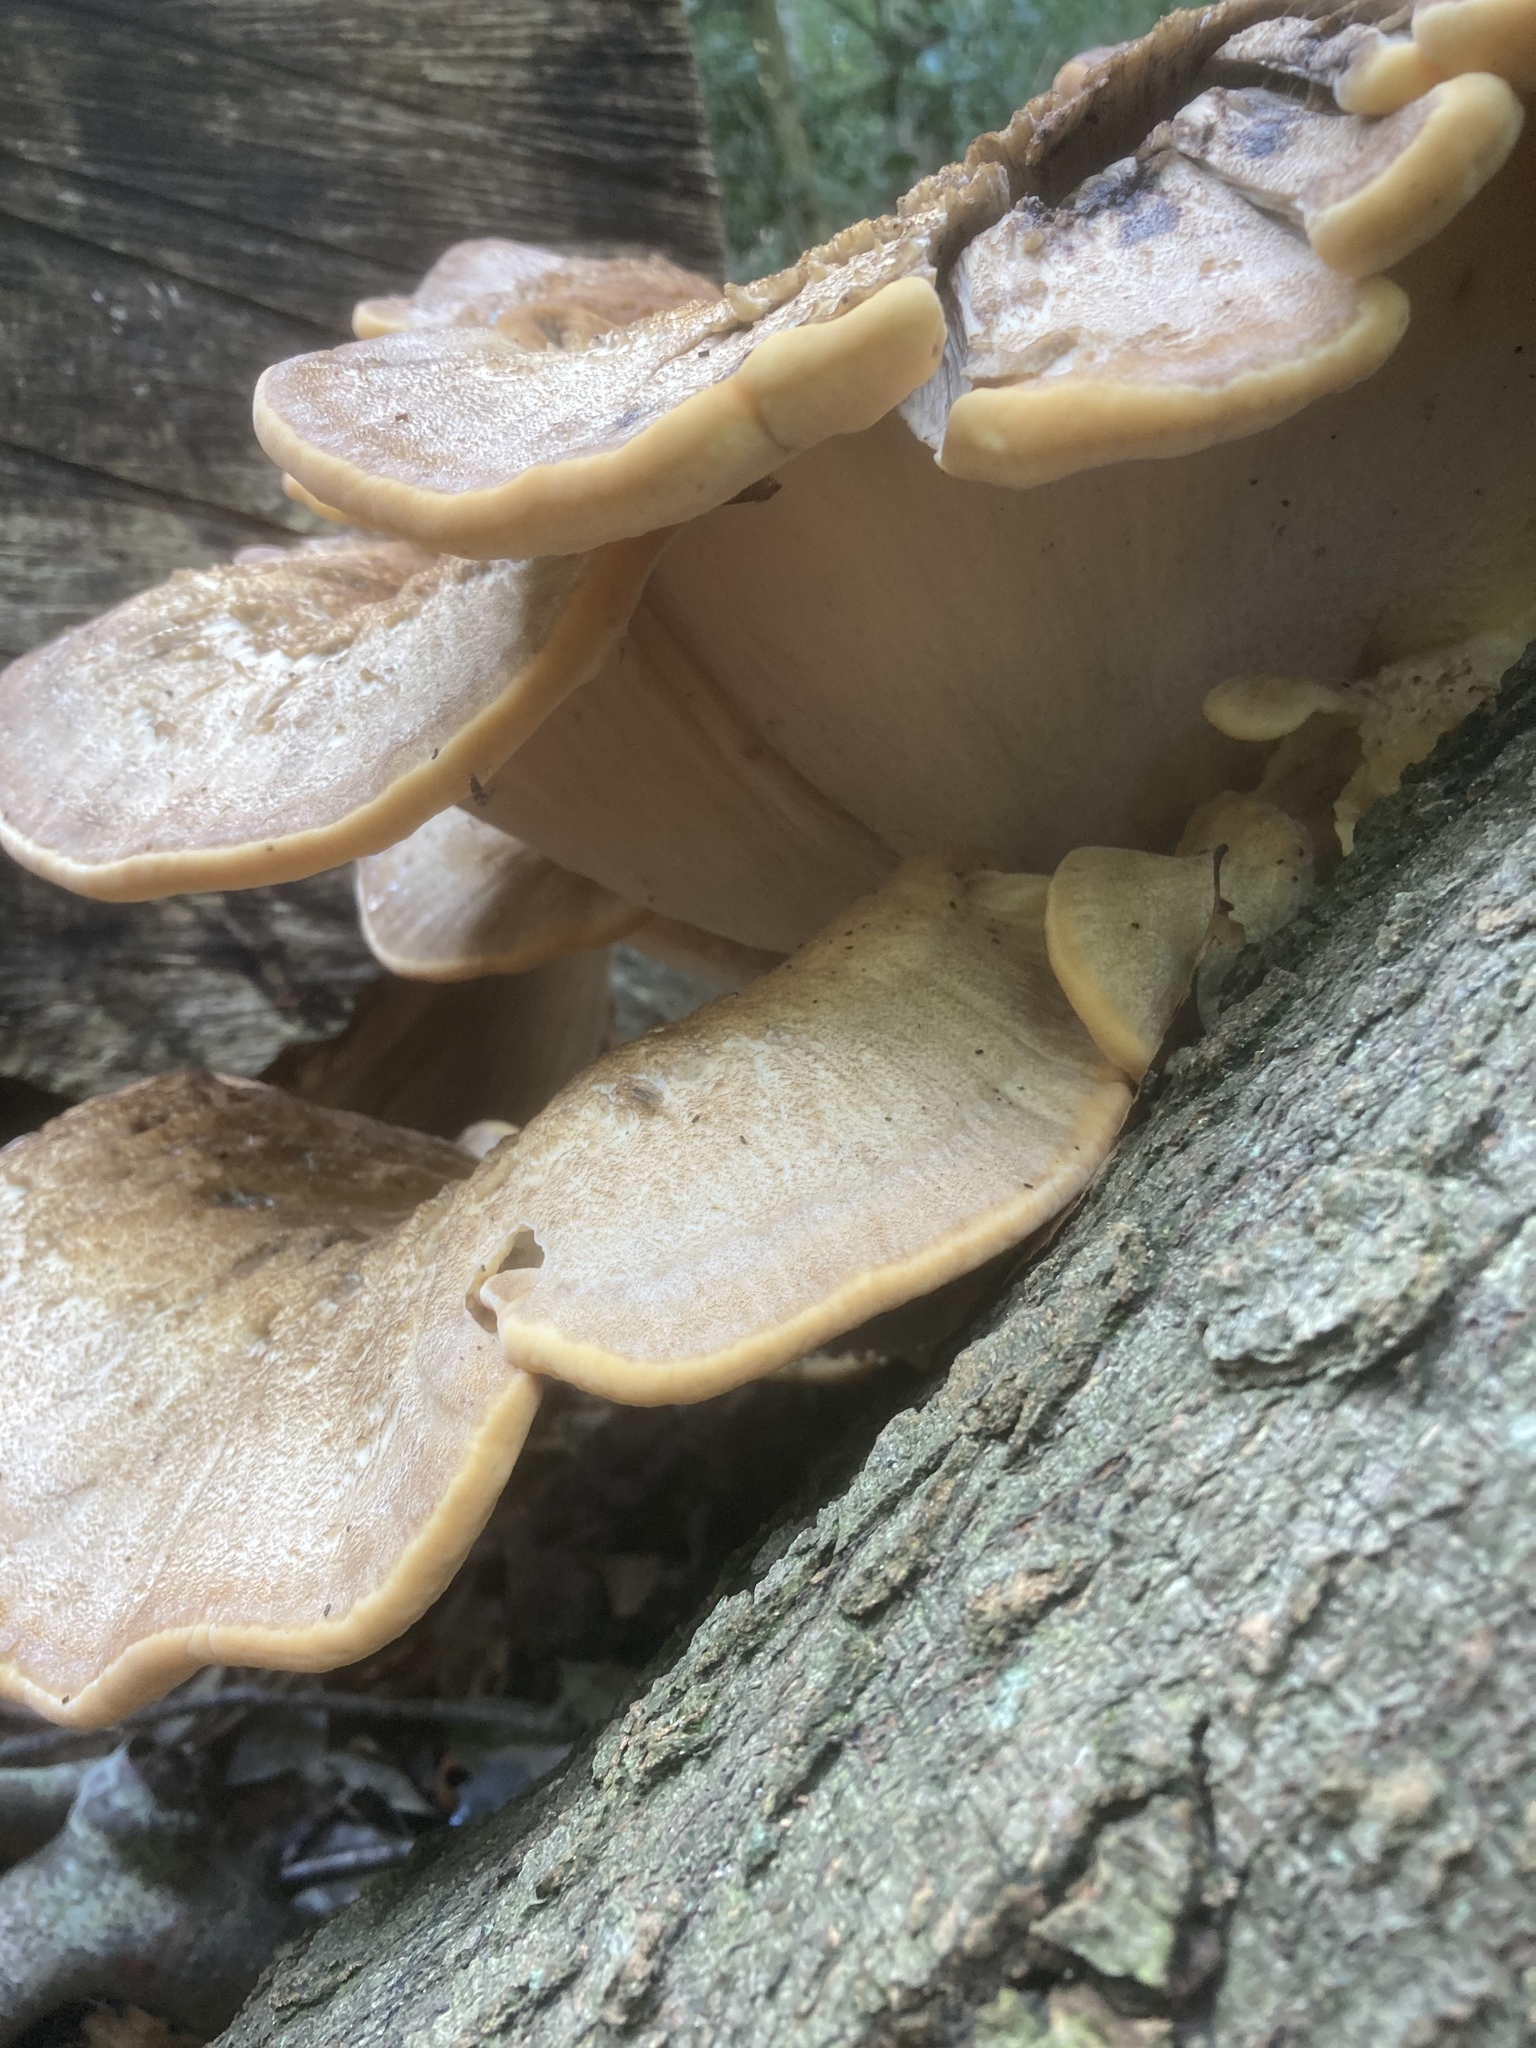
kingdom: Fungi
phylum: Basidiomycota
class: Agaricomycetes
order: Polyporales
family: Meripilaceae
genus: Meripilus
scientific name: Meripilus giganteus
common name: Giant polypore
